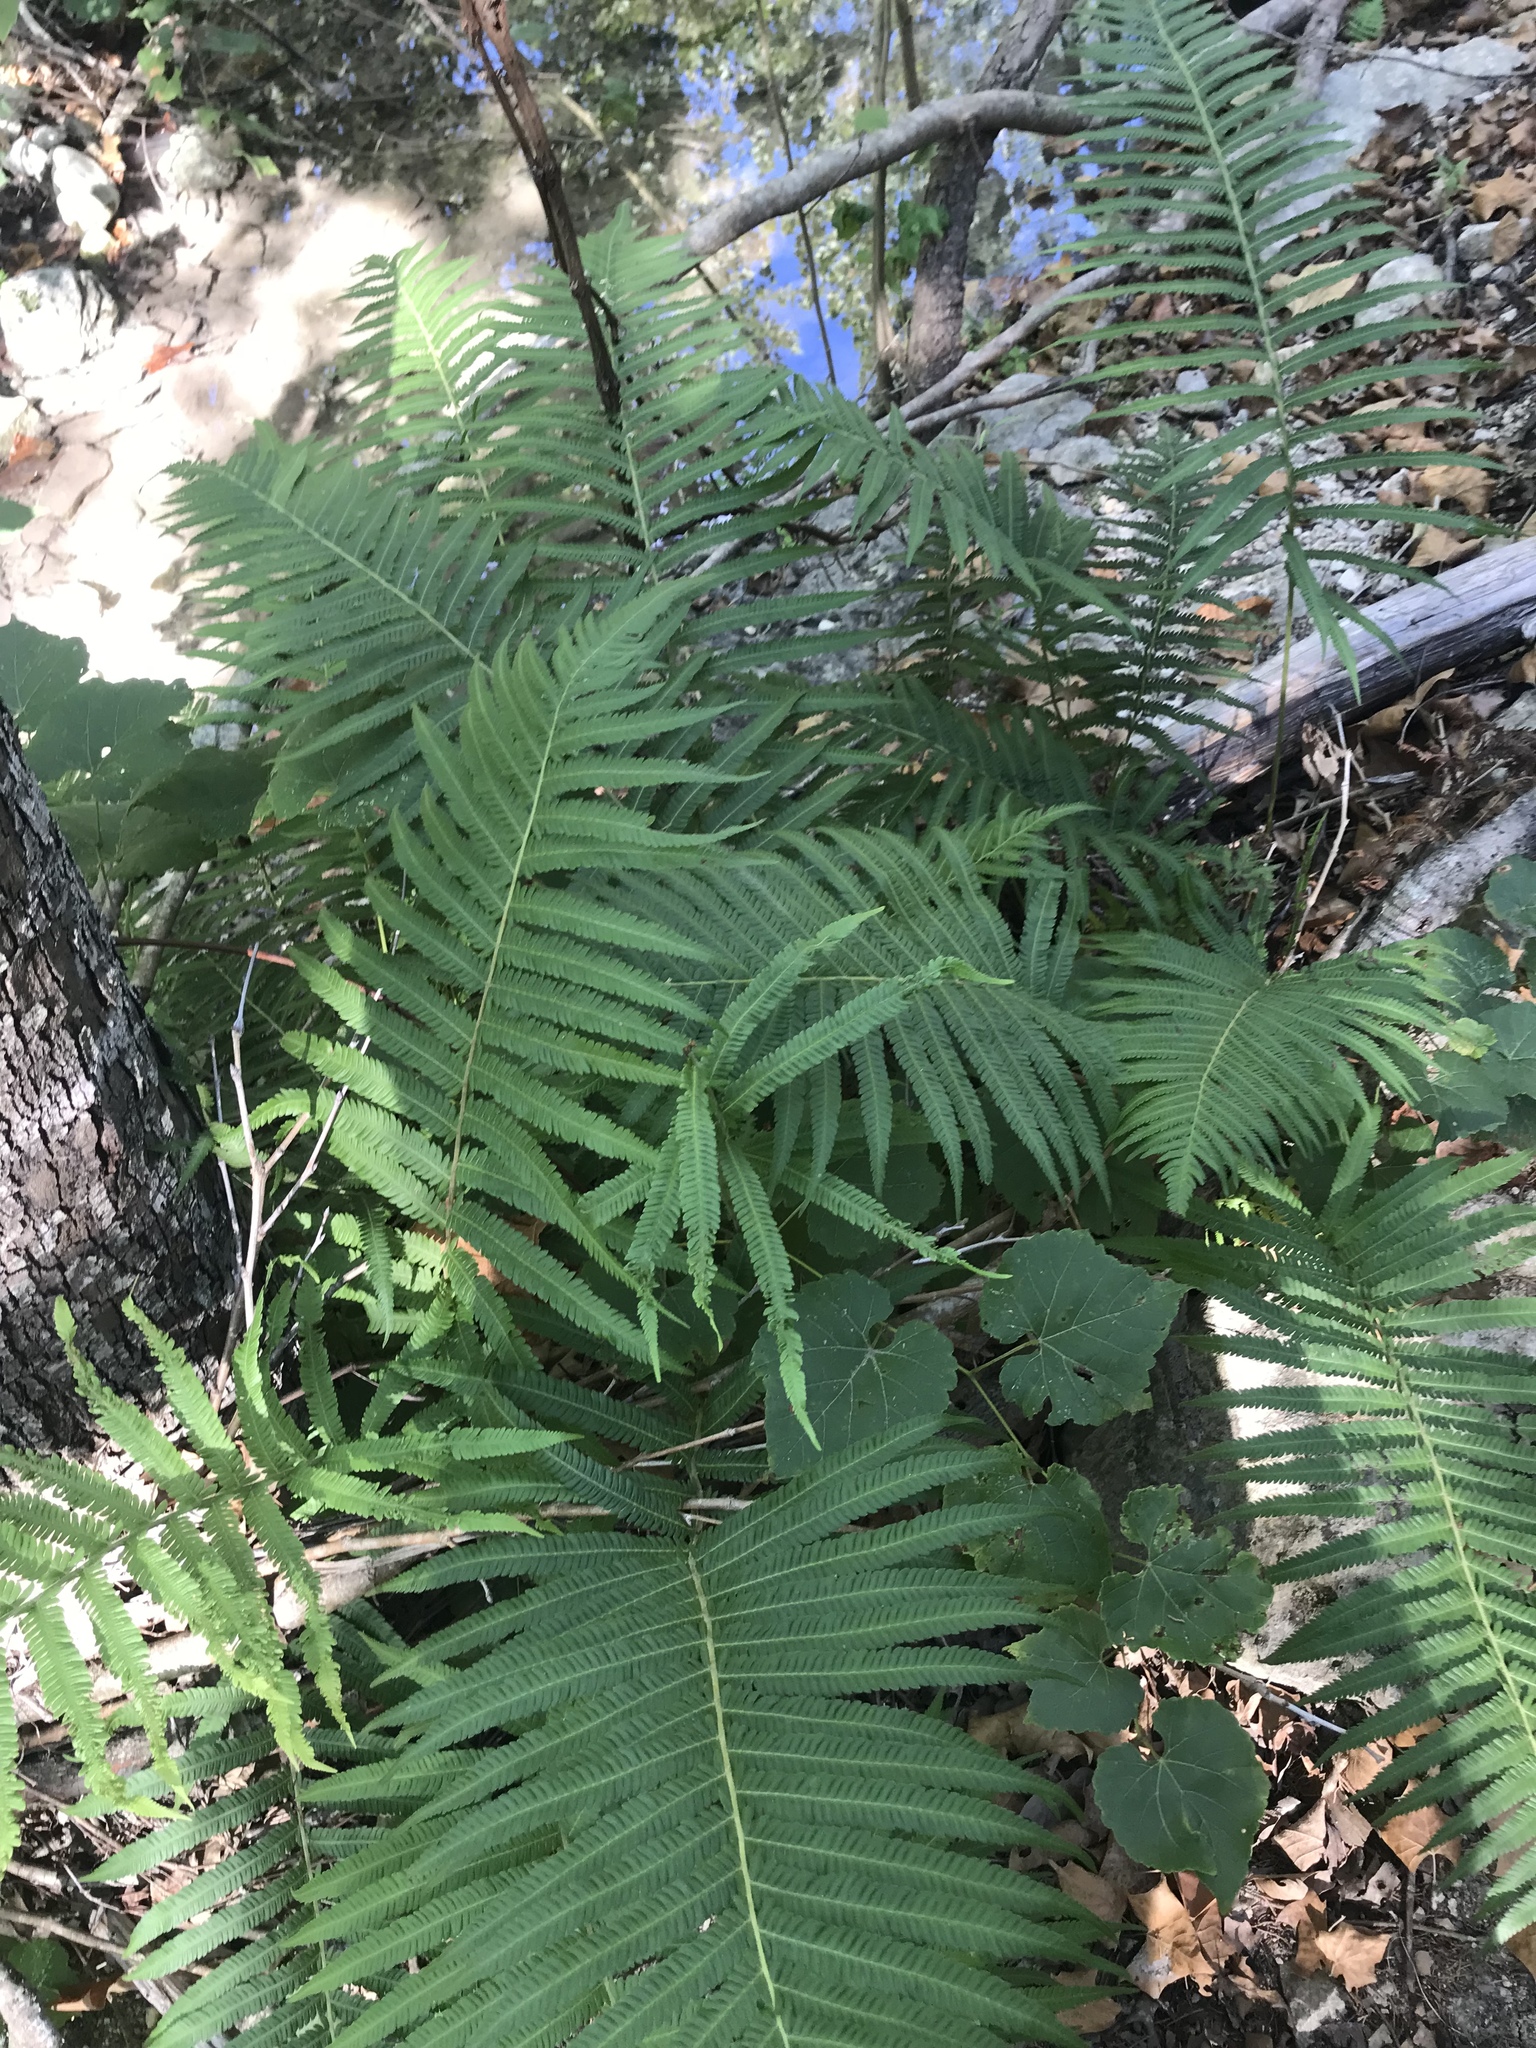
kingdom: Plantae
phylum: Tracheophyta
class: Polypodiopsida
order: Polypodiales
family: Thelypteridaceae
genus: Pelazoneuron
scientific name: Pelazoneuron ovatum
